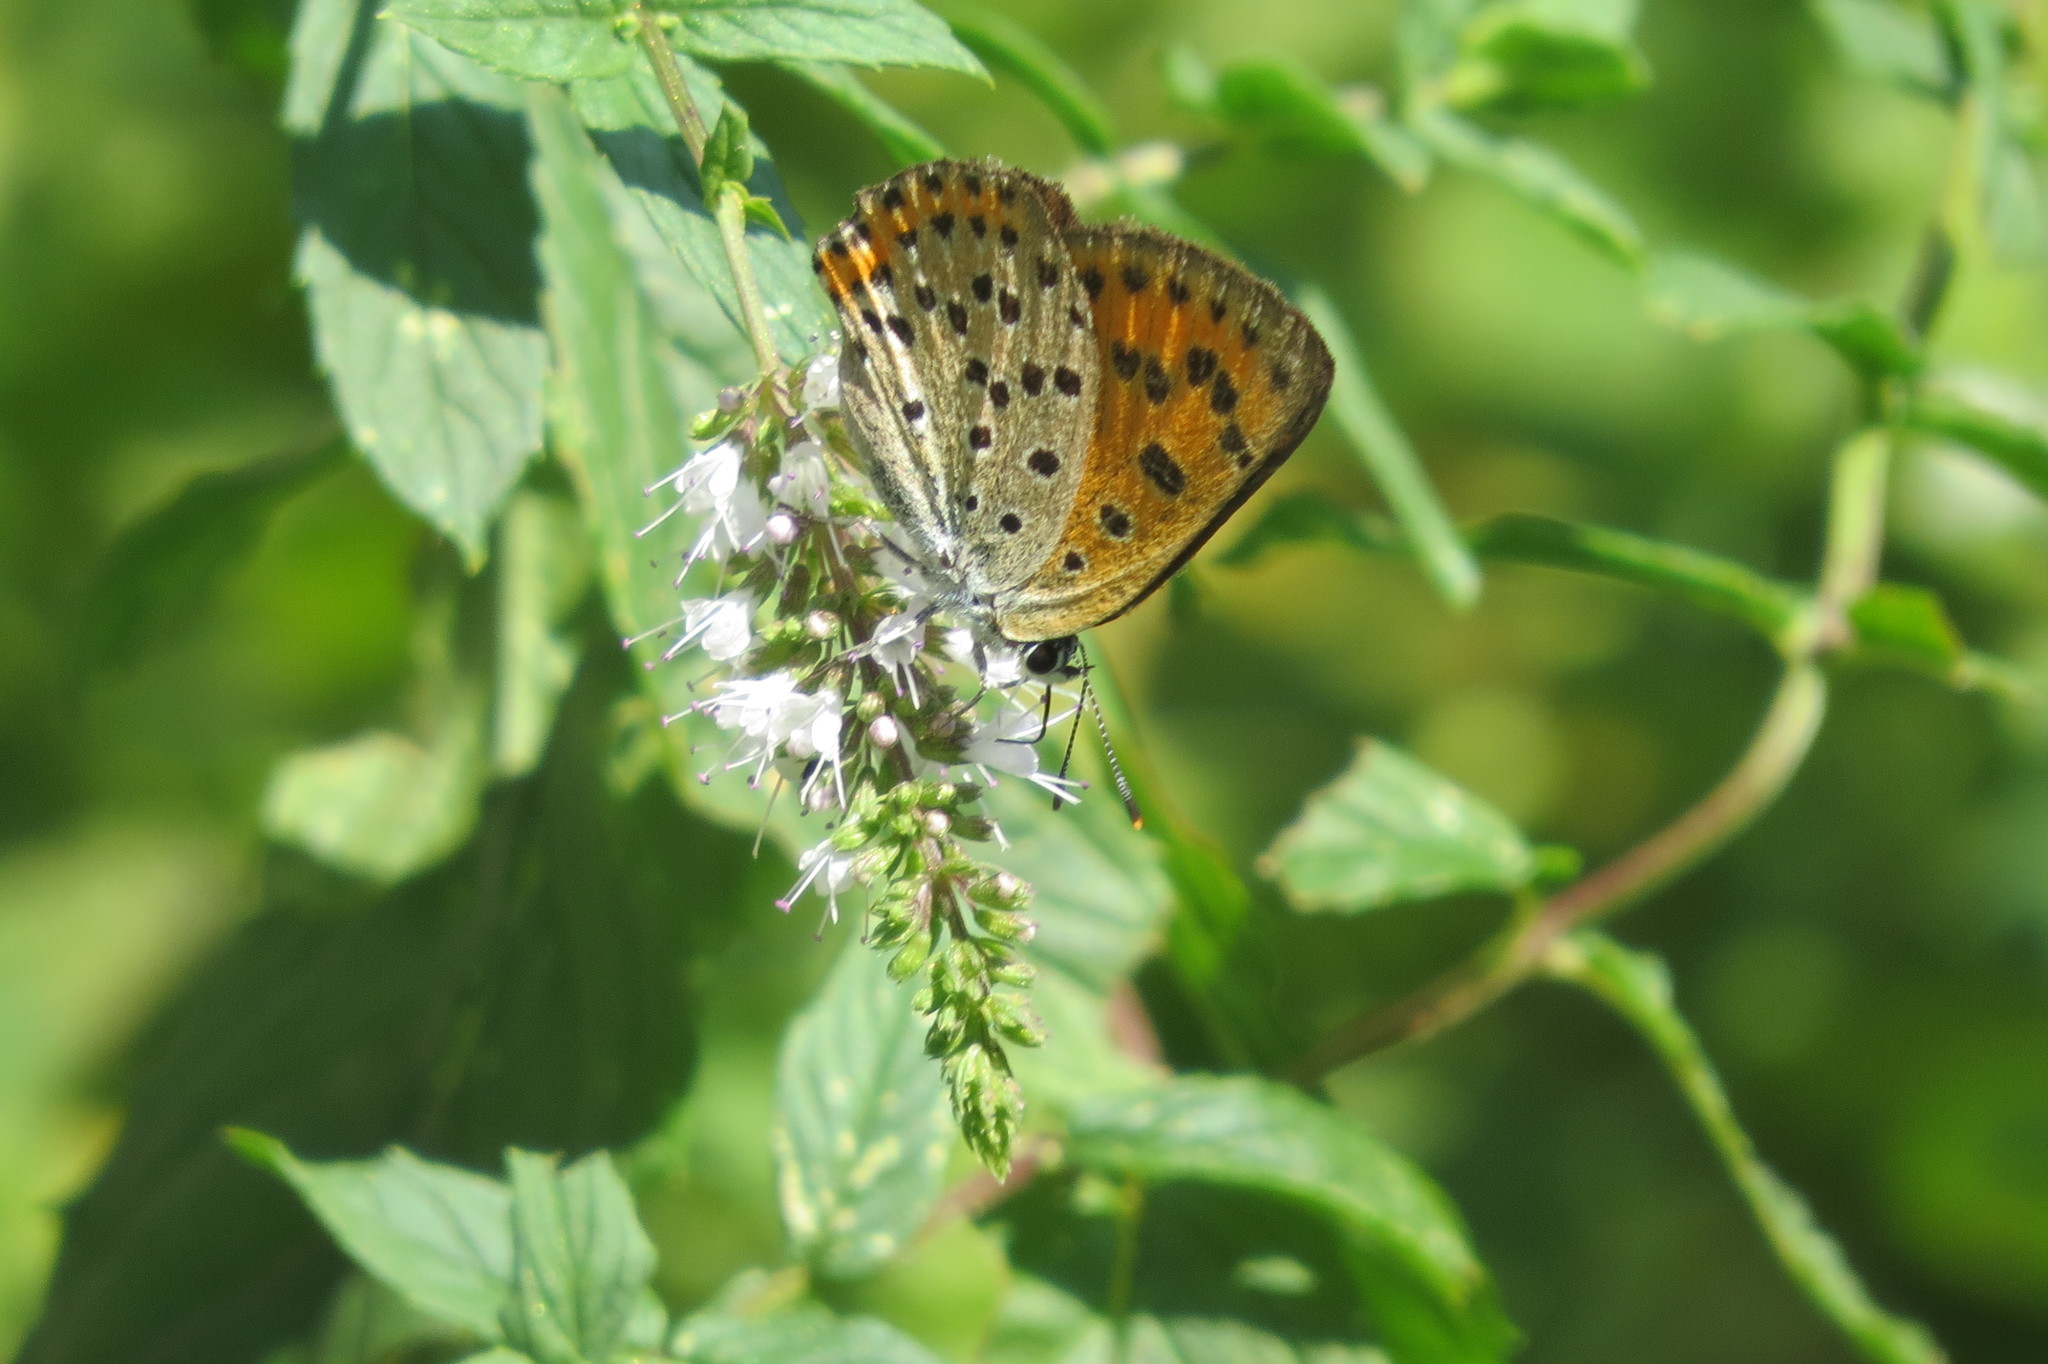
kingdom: Animalia
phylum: Arthropoda
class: Insecta
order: Lepidoptera
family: Lycaenidae
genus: Loweia
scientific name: Loweia tityrus
